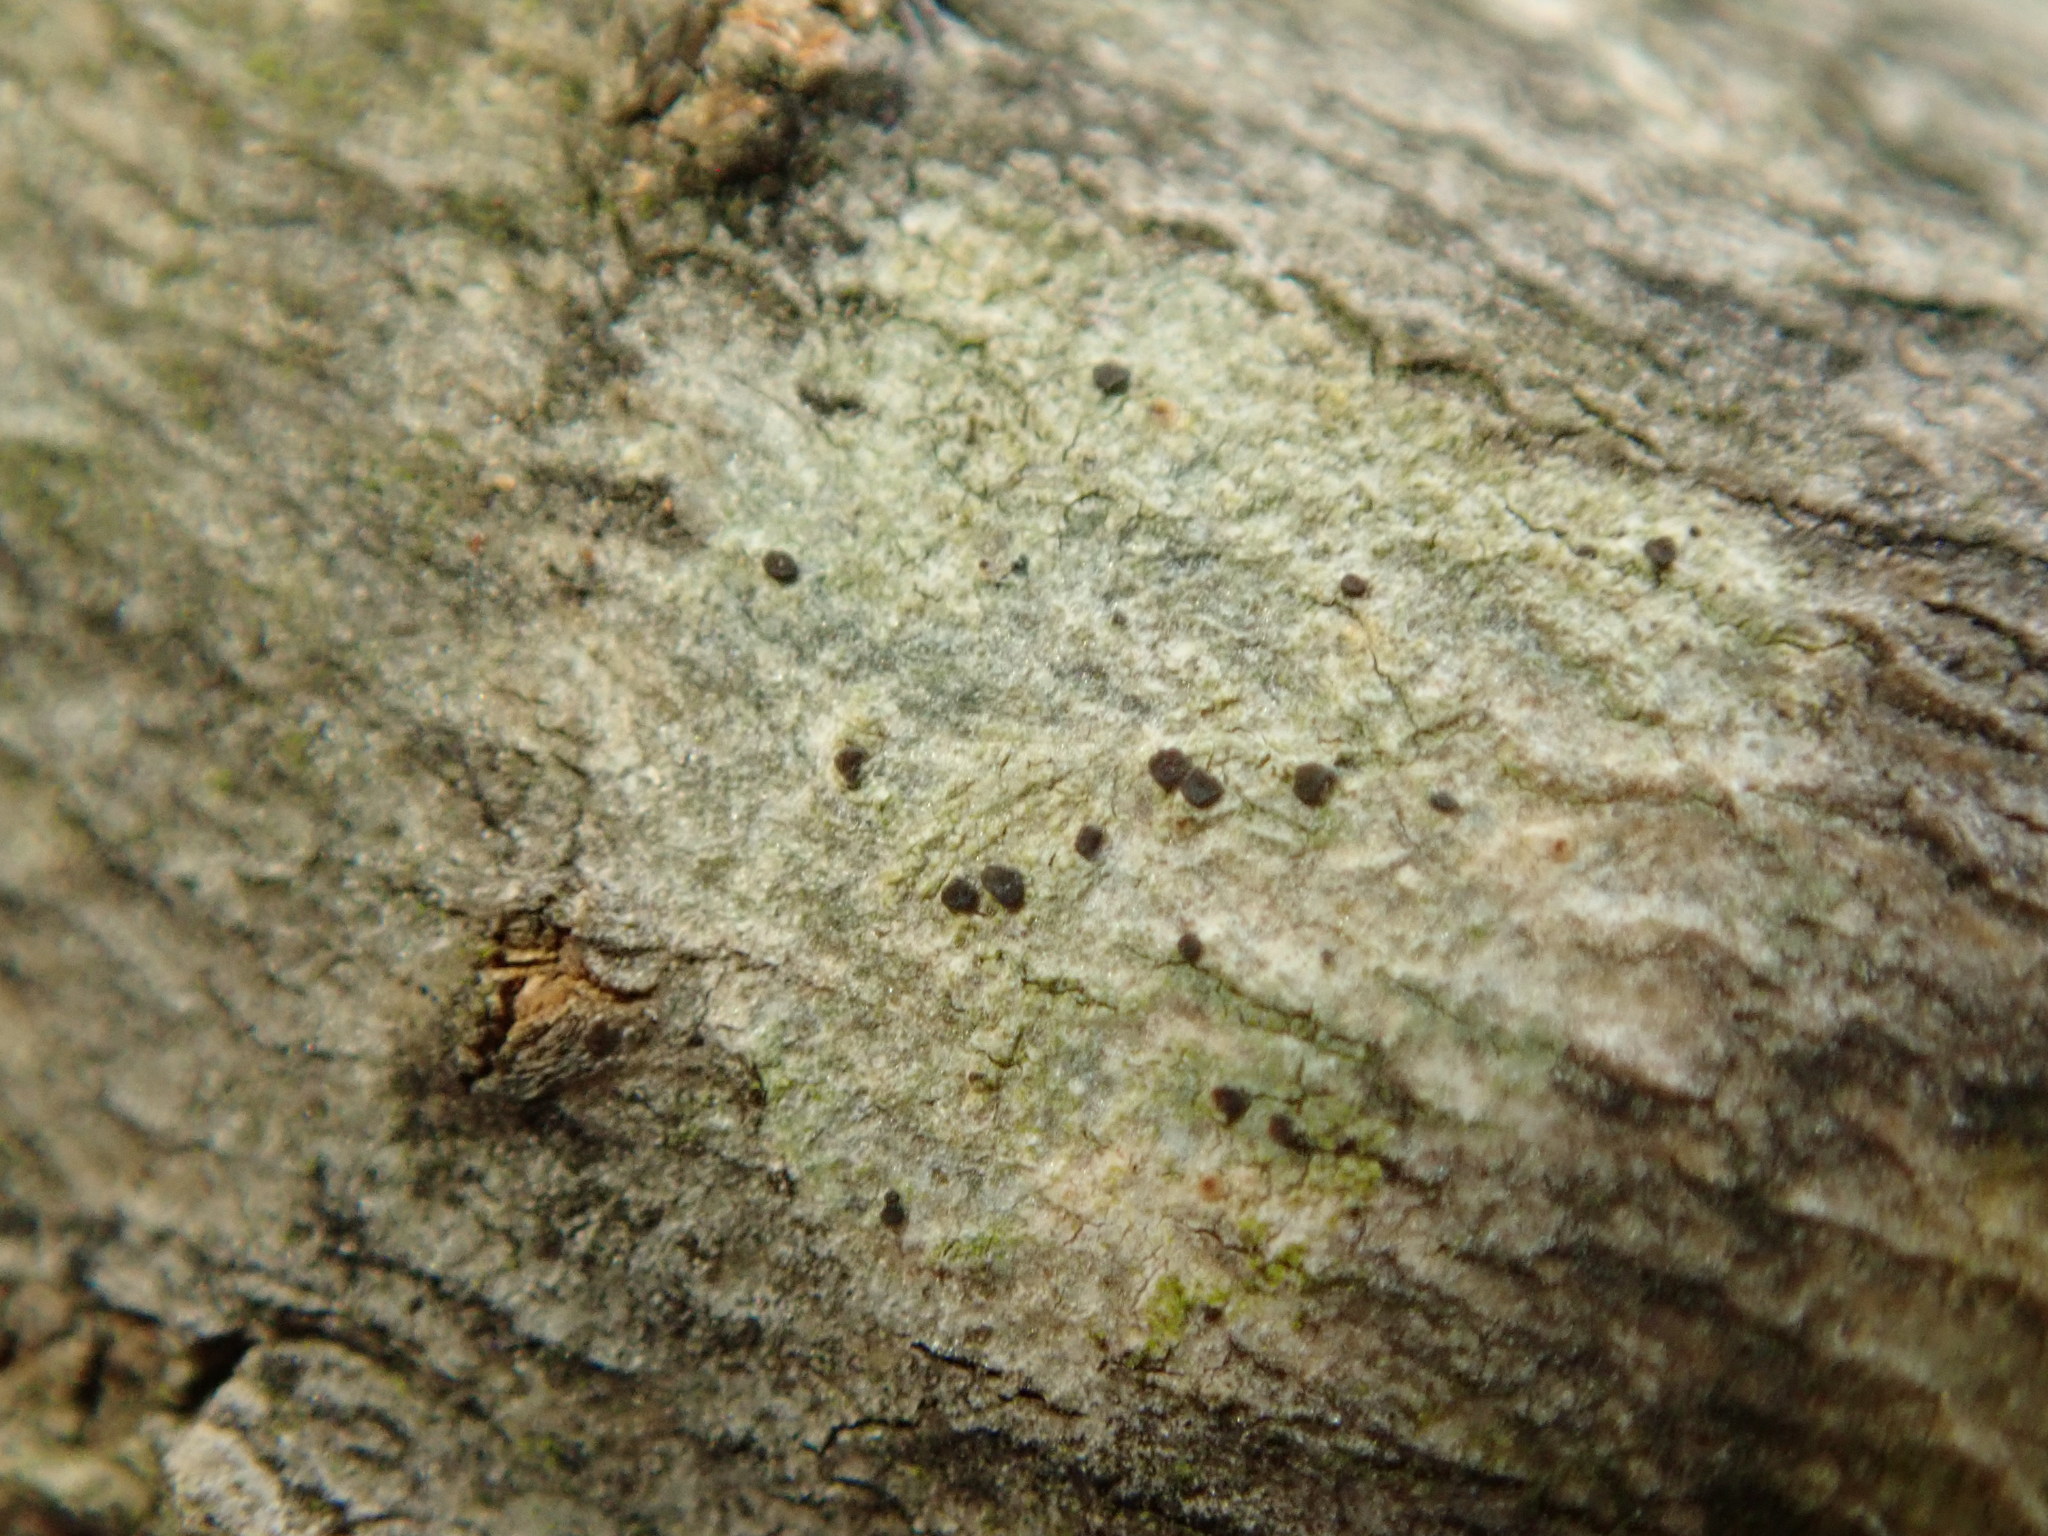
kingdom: Fungi
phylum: Ascomycota
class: Lecanoromycetes
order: Lecanorales
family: Lecanoraceae
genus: Traponora
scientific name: Traponora varians
